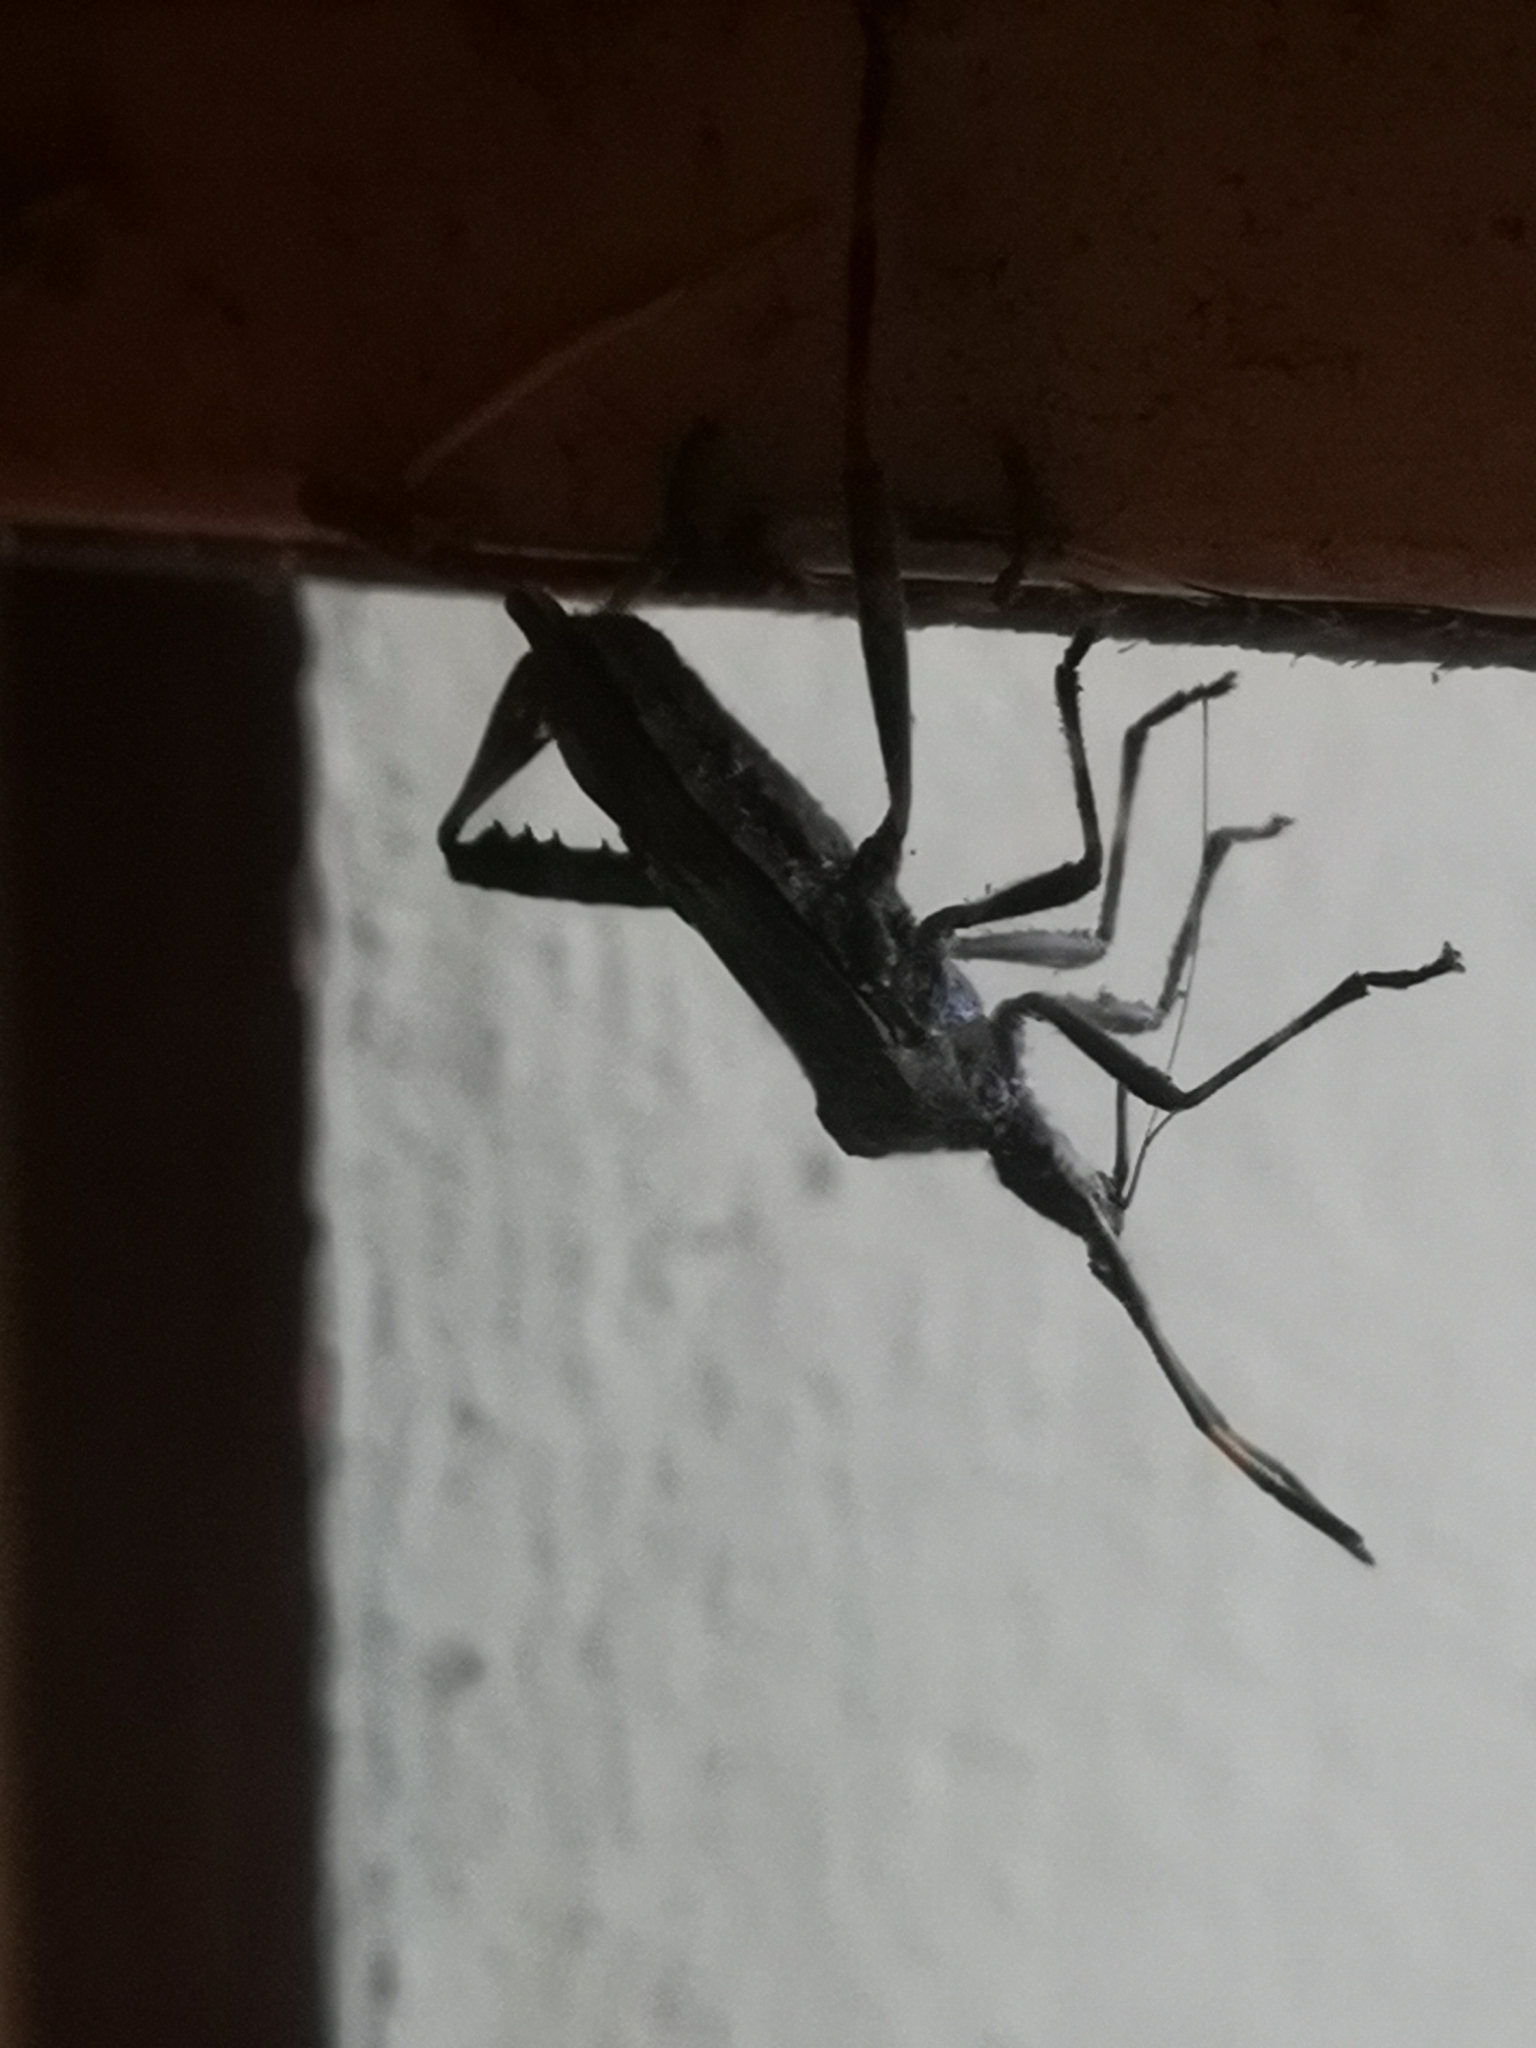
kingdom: Animalia
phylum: Arthropoda
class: Insecta
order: Hemiptera
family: Coreidae
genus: Leptoglossus
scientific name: Leptoglossus occidentalis
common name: Western conifer-seed bug
